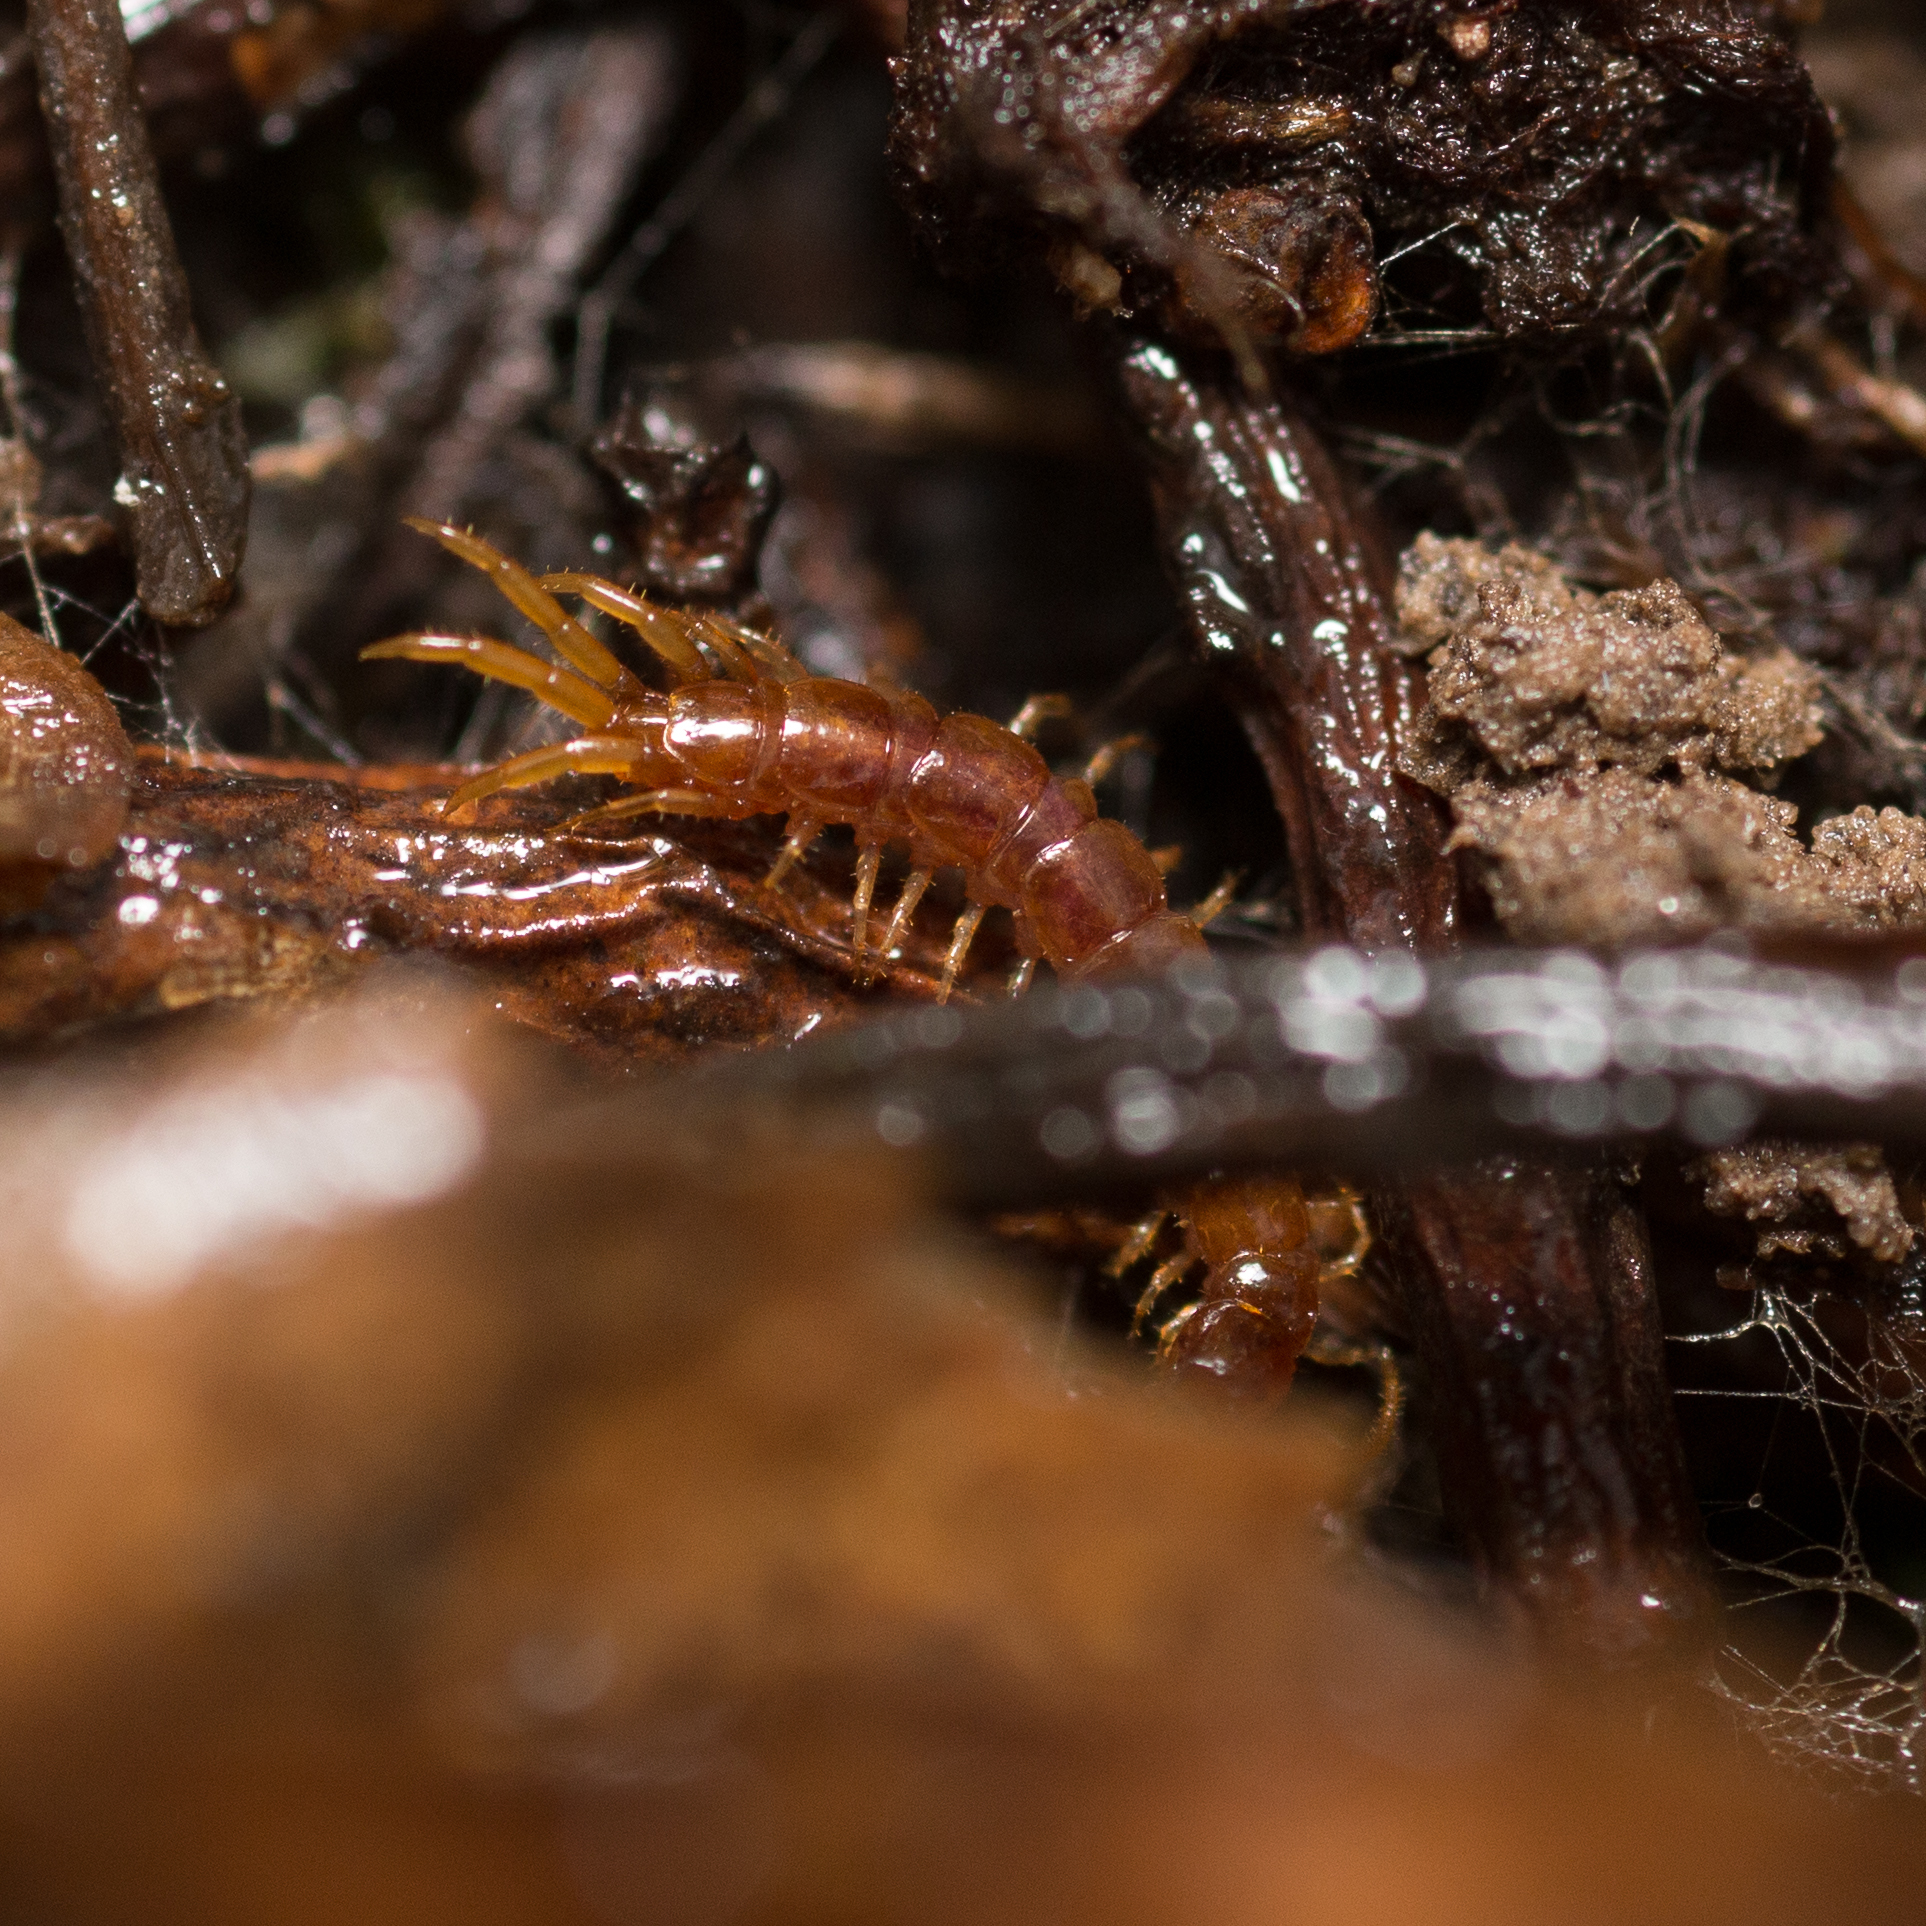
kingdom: Animalia
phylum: Arthropoda
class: Chilopoda
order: Lithobiomorpha
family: Lithobiidae
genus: Lithobius
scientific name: Lithobius forficatus
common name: Centipede
